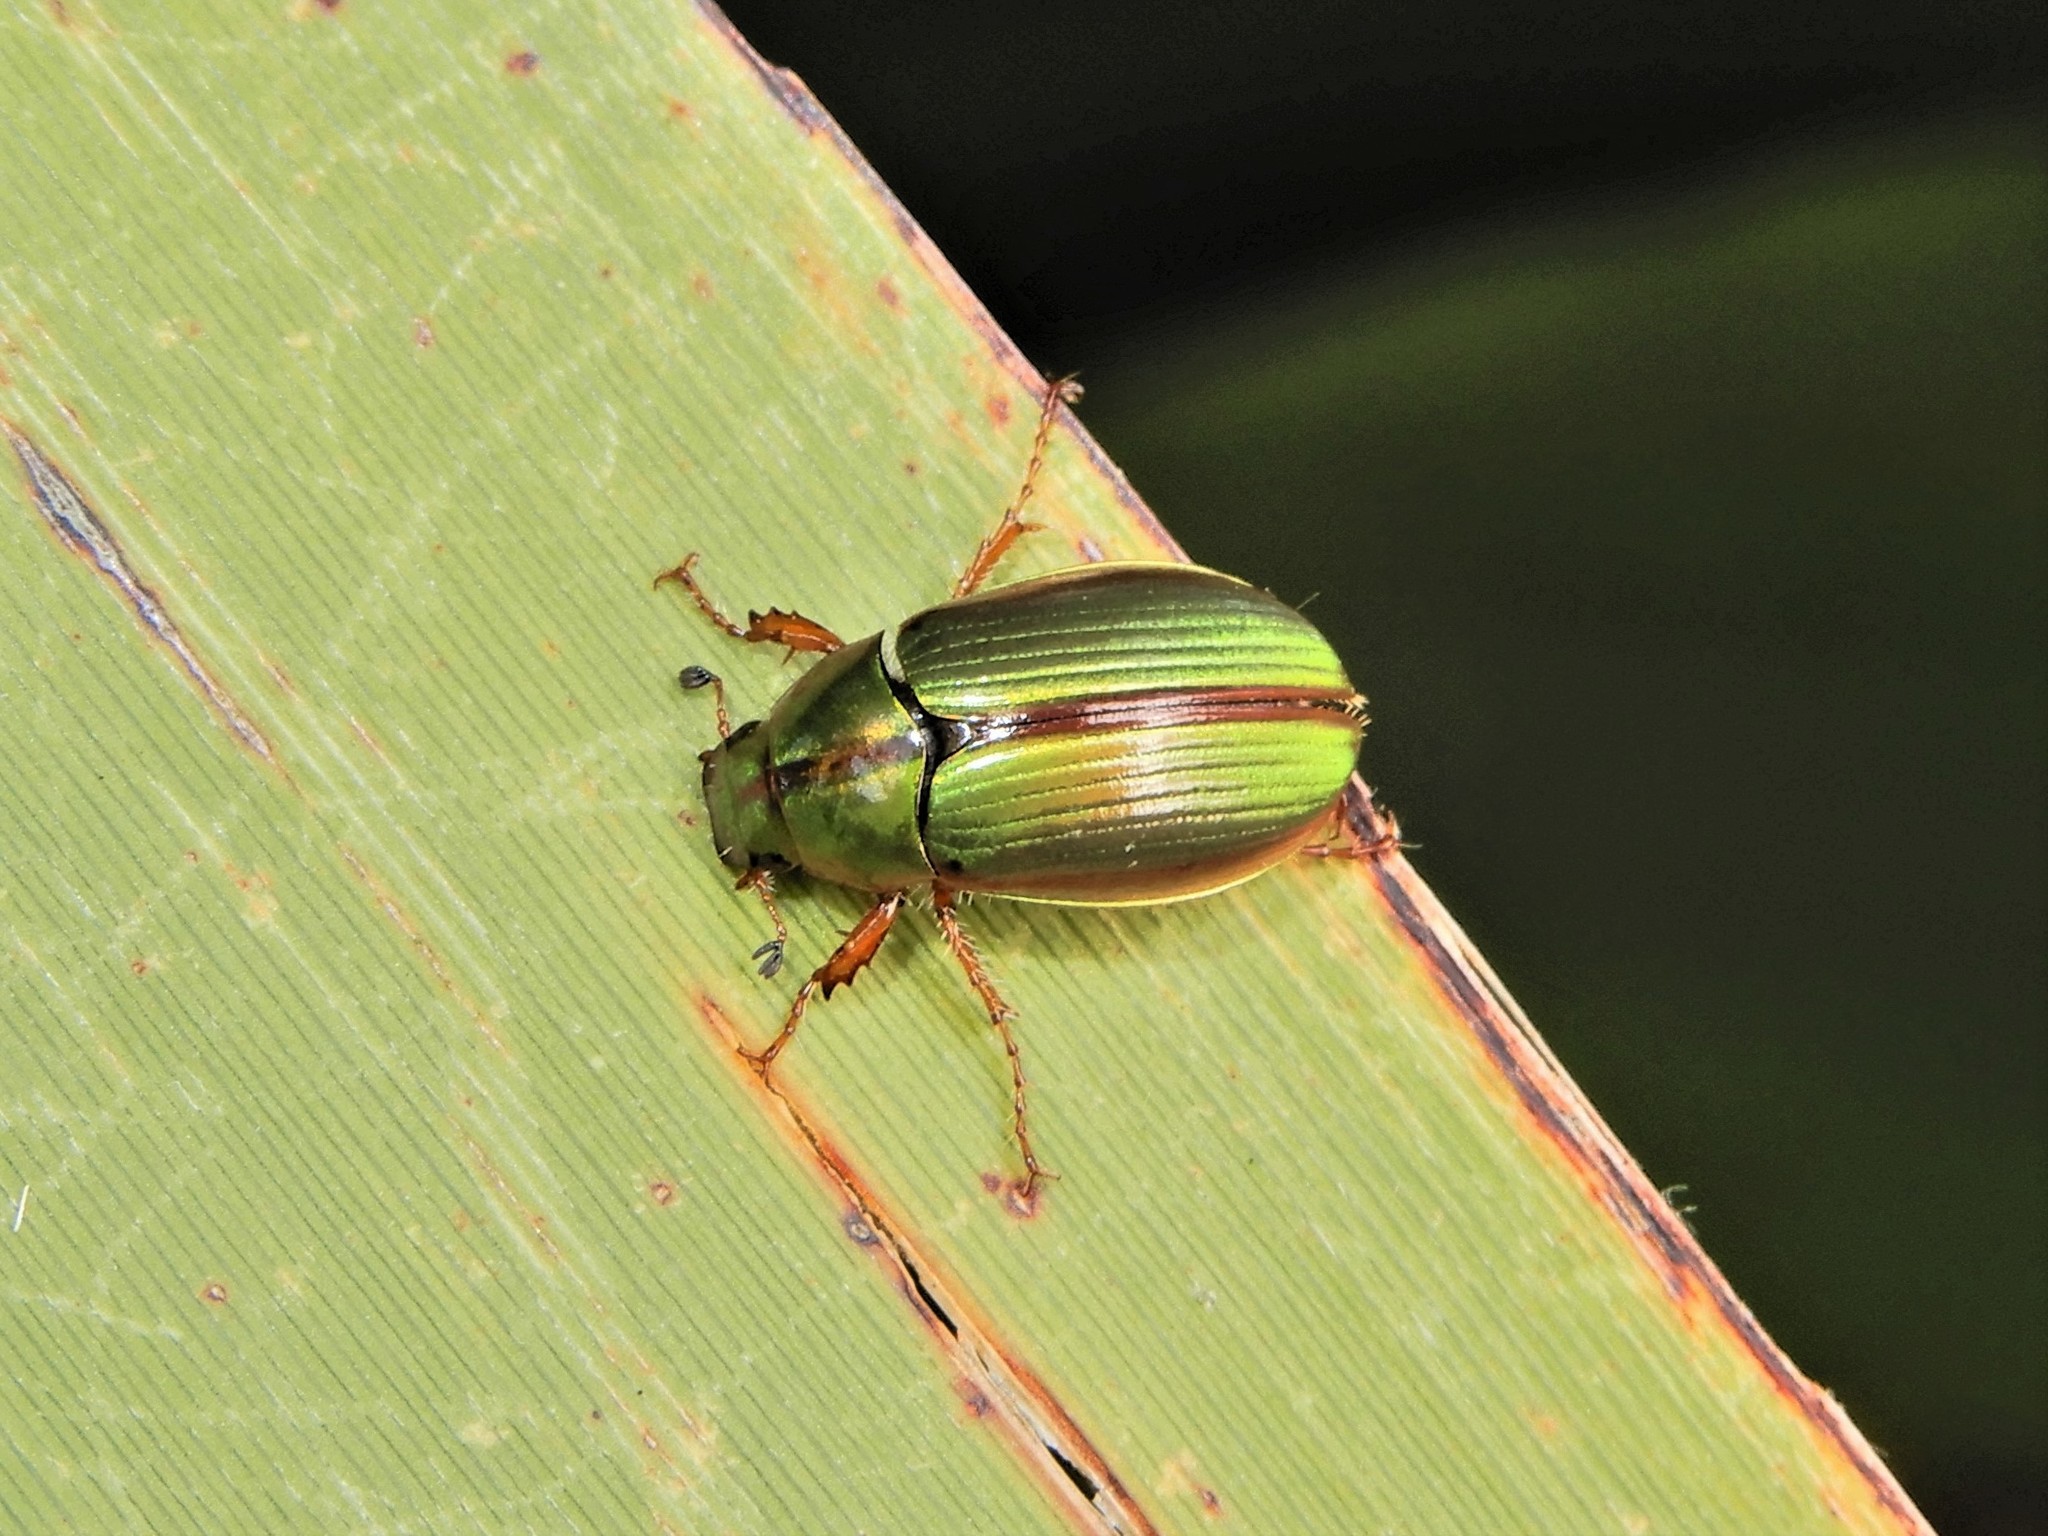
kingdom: Animalia
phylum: Arthropoda
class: Insecta
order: Coleoptera
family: Scarabaeidae
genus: Pyronota
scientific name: Pyronota festiva
